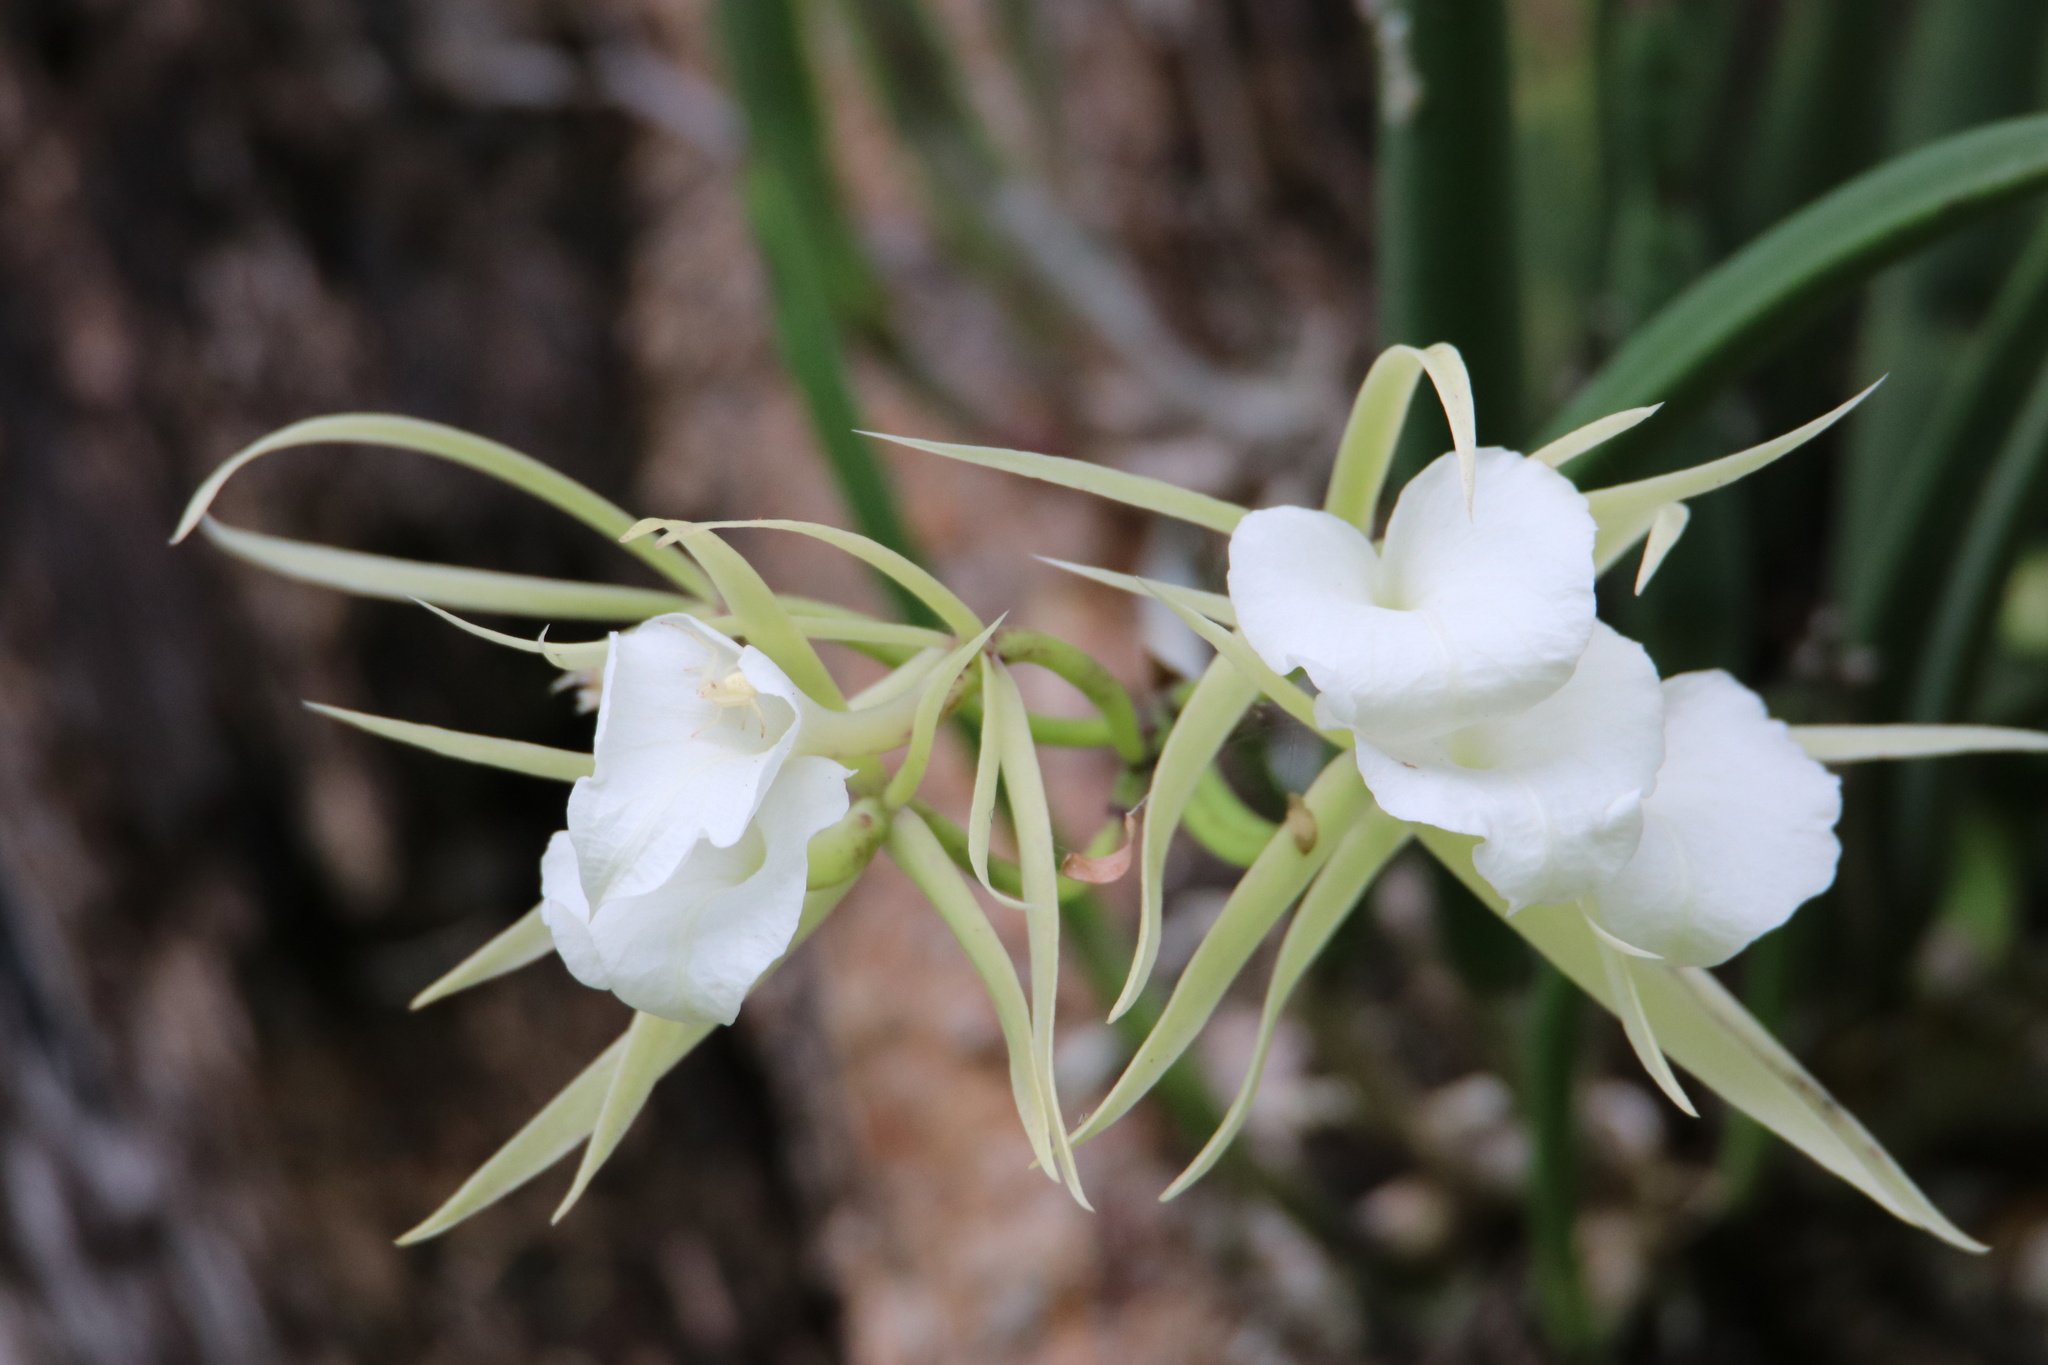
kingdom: Plantae
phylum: Tracheophyta
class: Liliopsida
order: Asparagales
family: Orchidaceae
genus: Brassavola
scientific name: Brassavola nodosa
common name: Lady of the night
